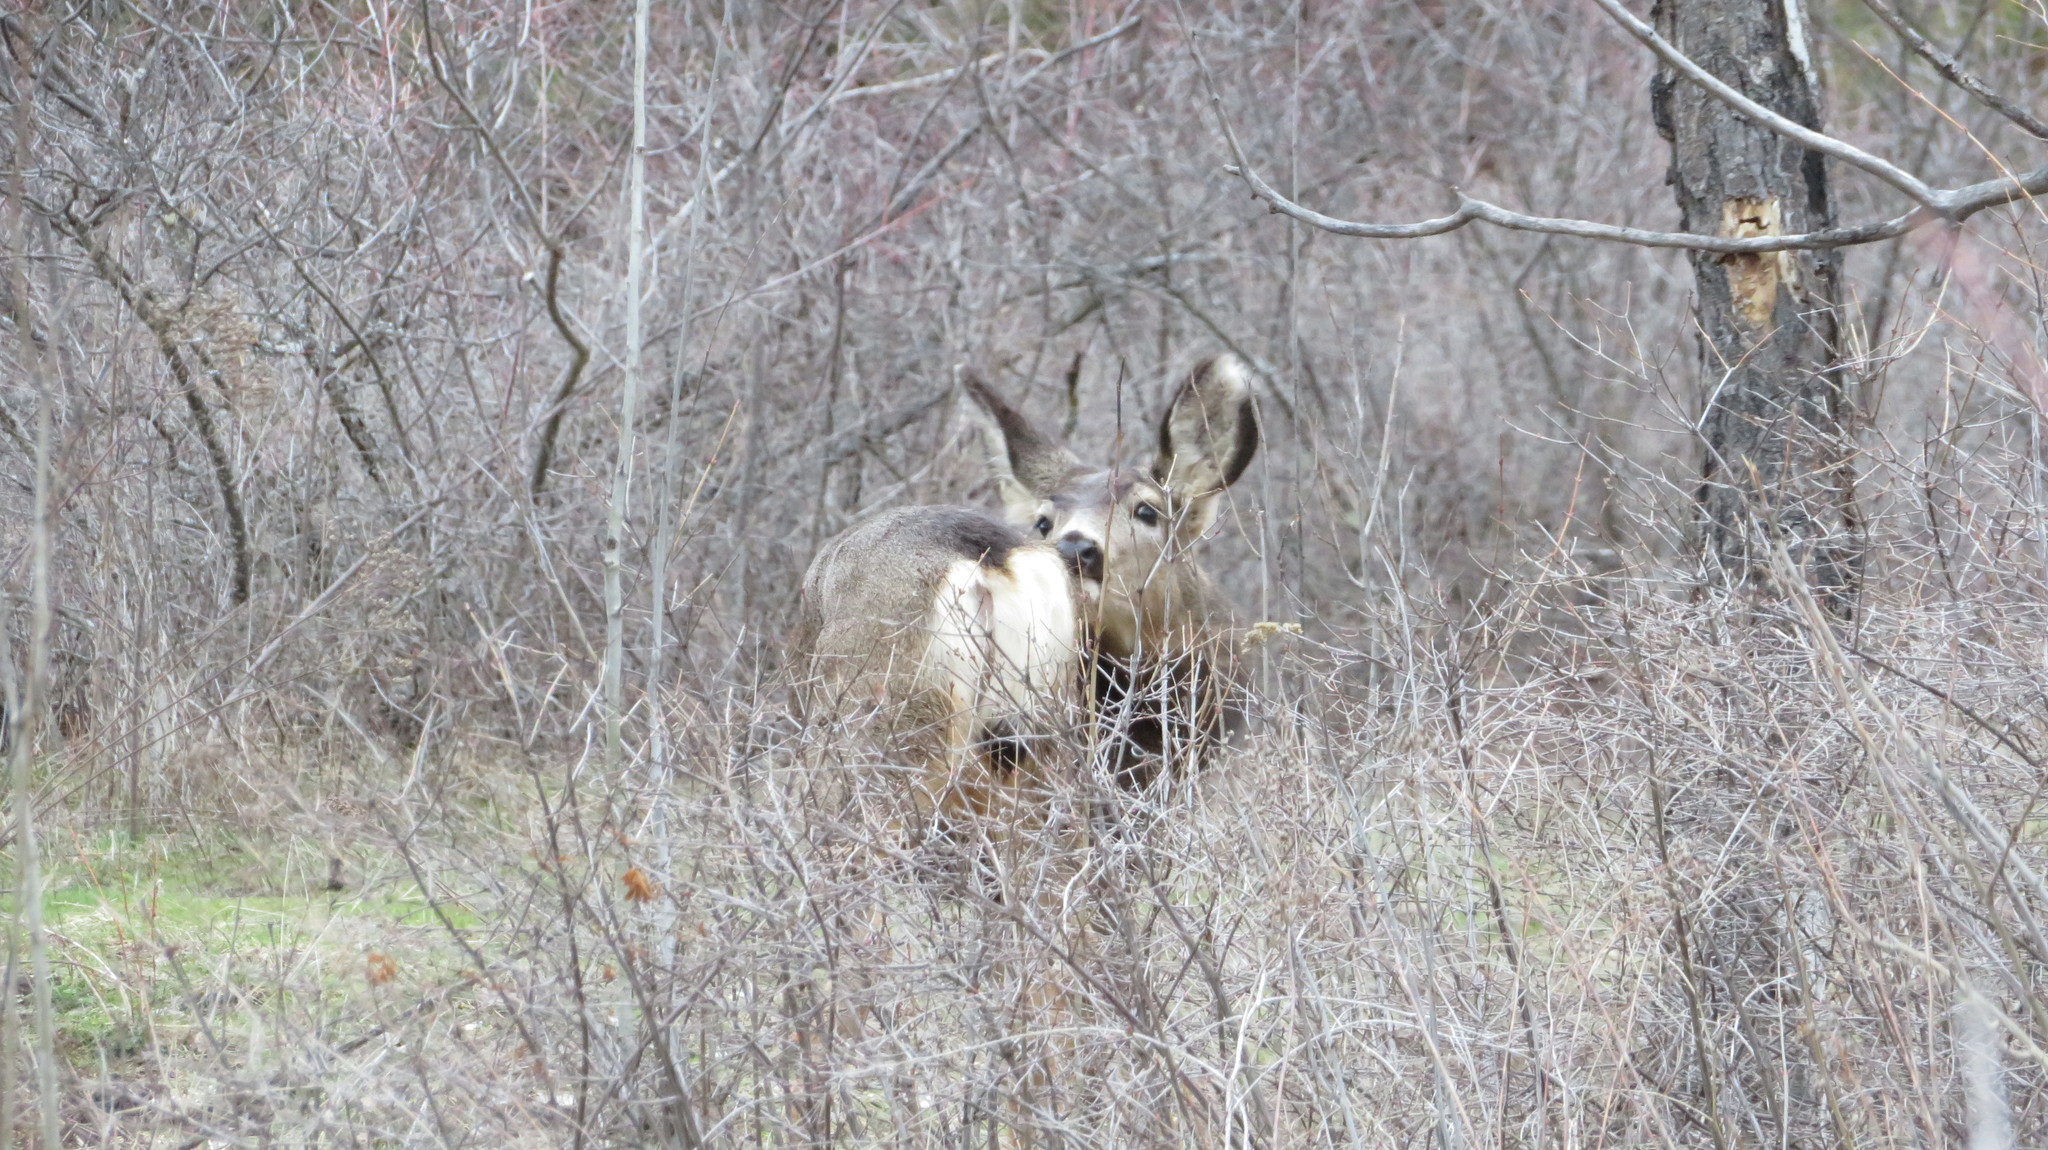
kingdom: Animalia
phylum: Chordata
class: Mammalia
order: Artiodactyla
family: Cervidae
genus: Odocoileus
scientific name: Odocoileus hemionus
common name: Mule deer
